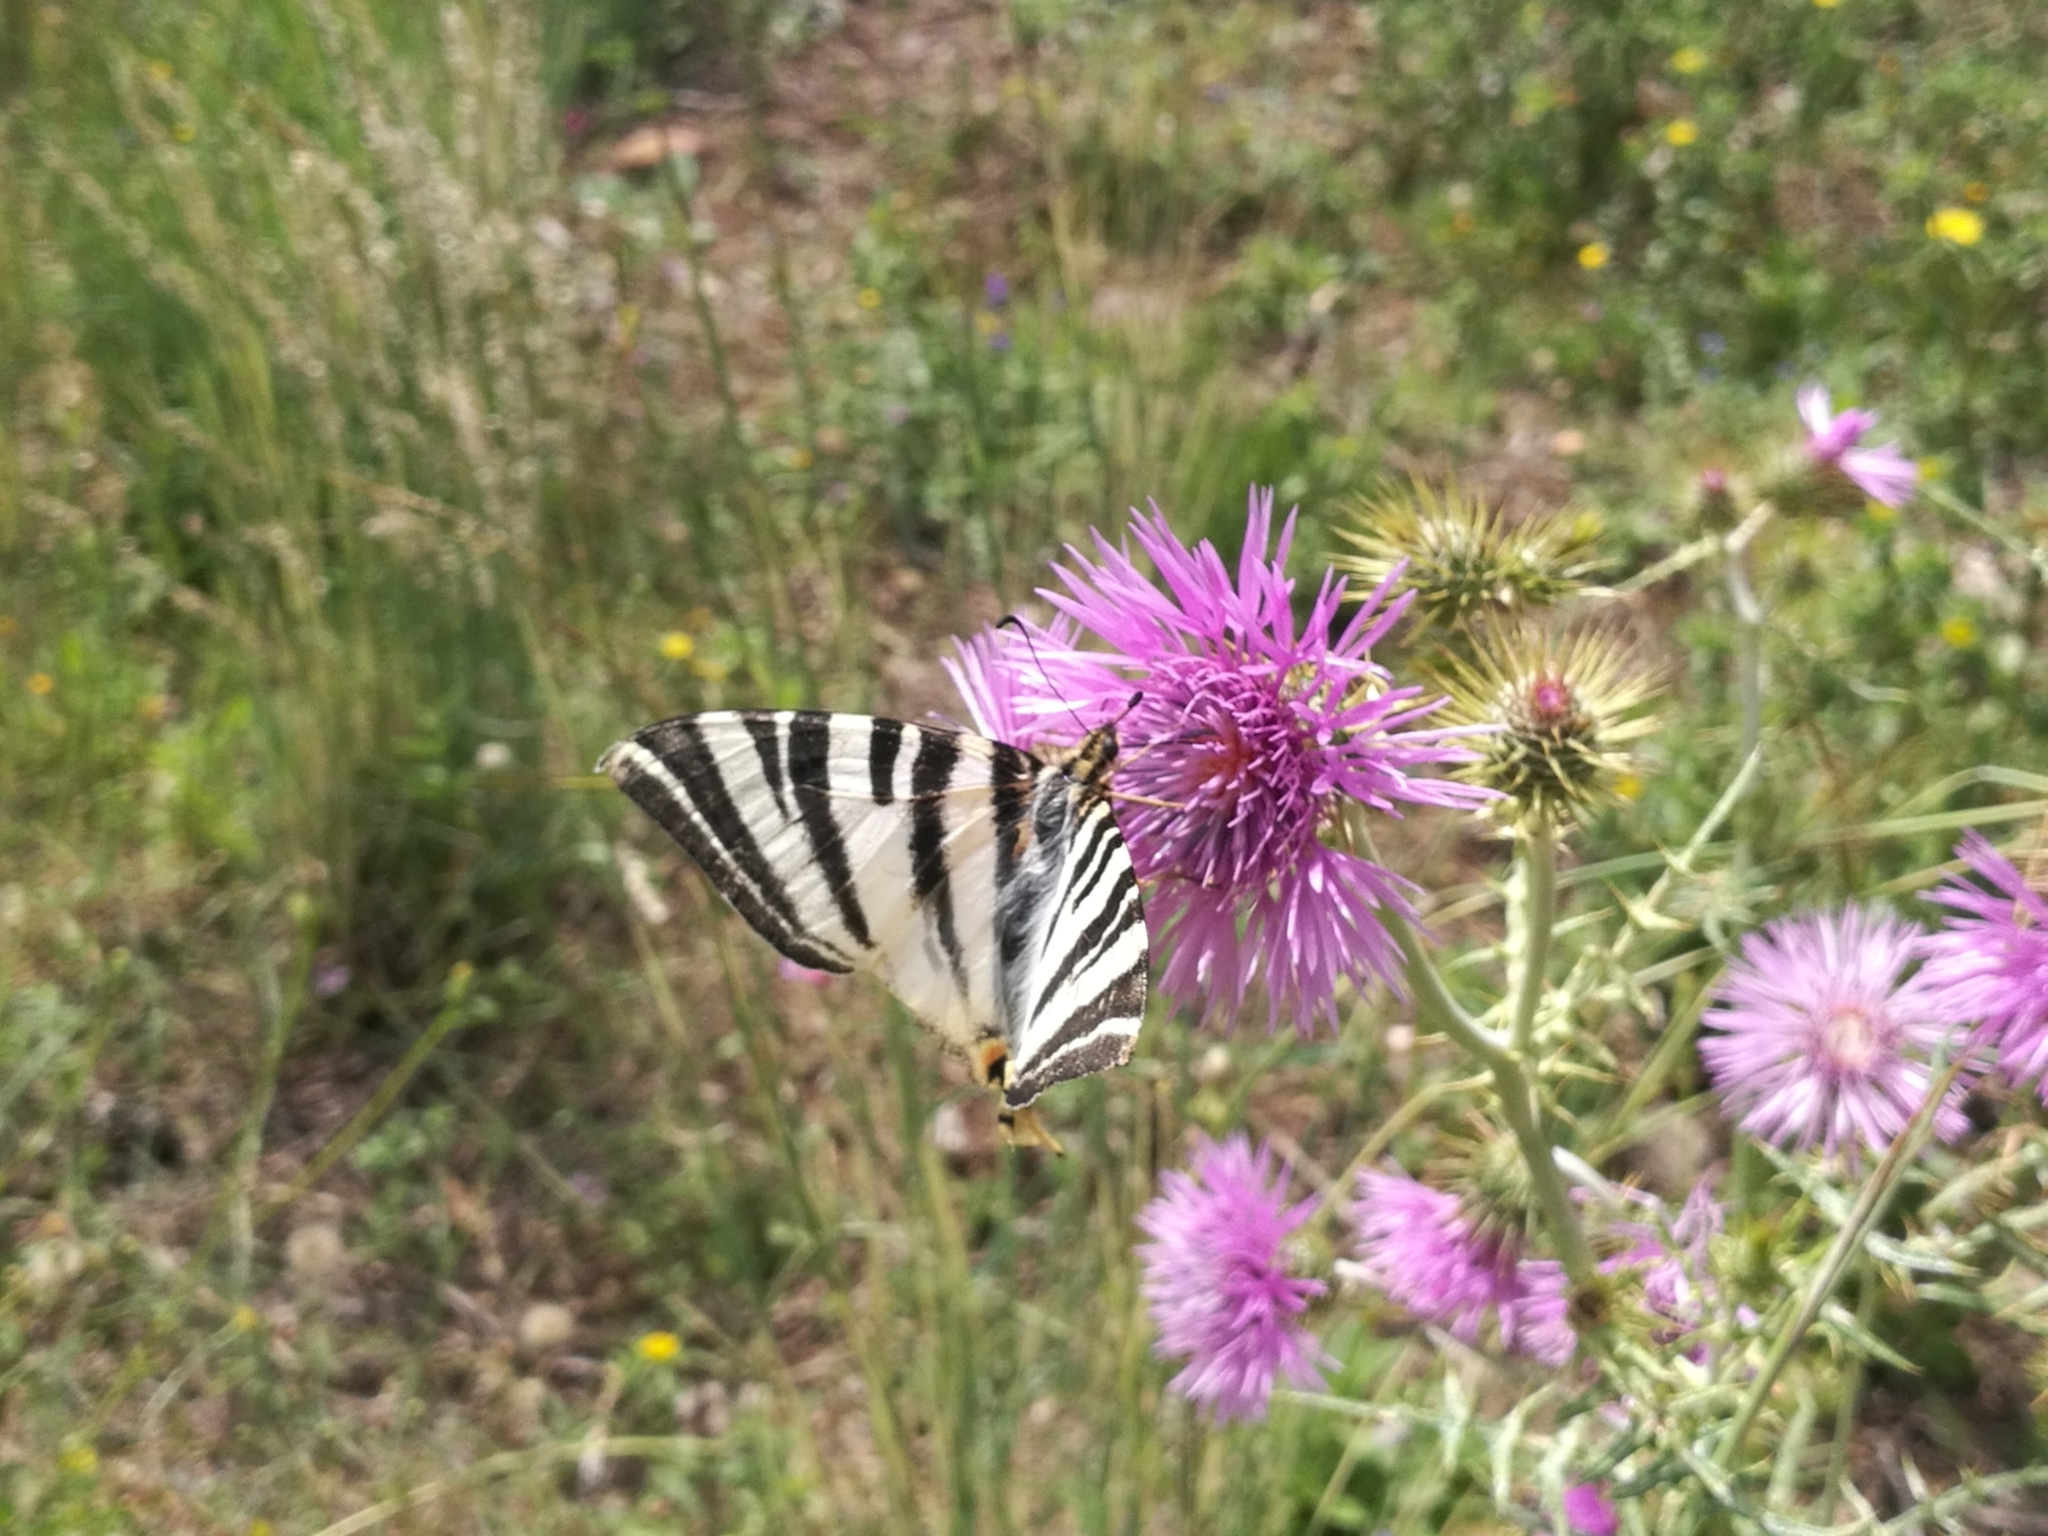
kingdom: Animalia
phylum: Arthropoda
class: Insecta
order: Lepidoptera
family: Papilionidae
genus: Iphiclides
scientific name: Iphiclides feisthamelii
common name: Iberian scarce swallowtail
